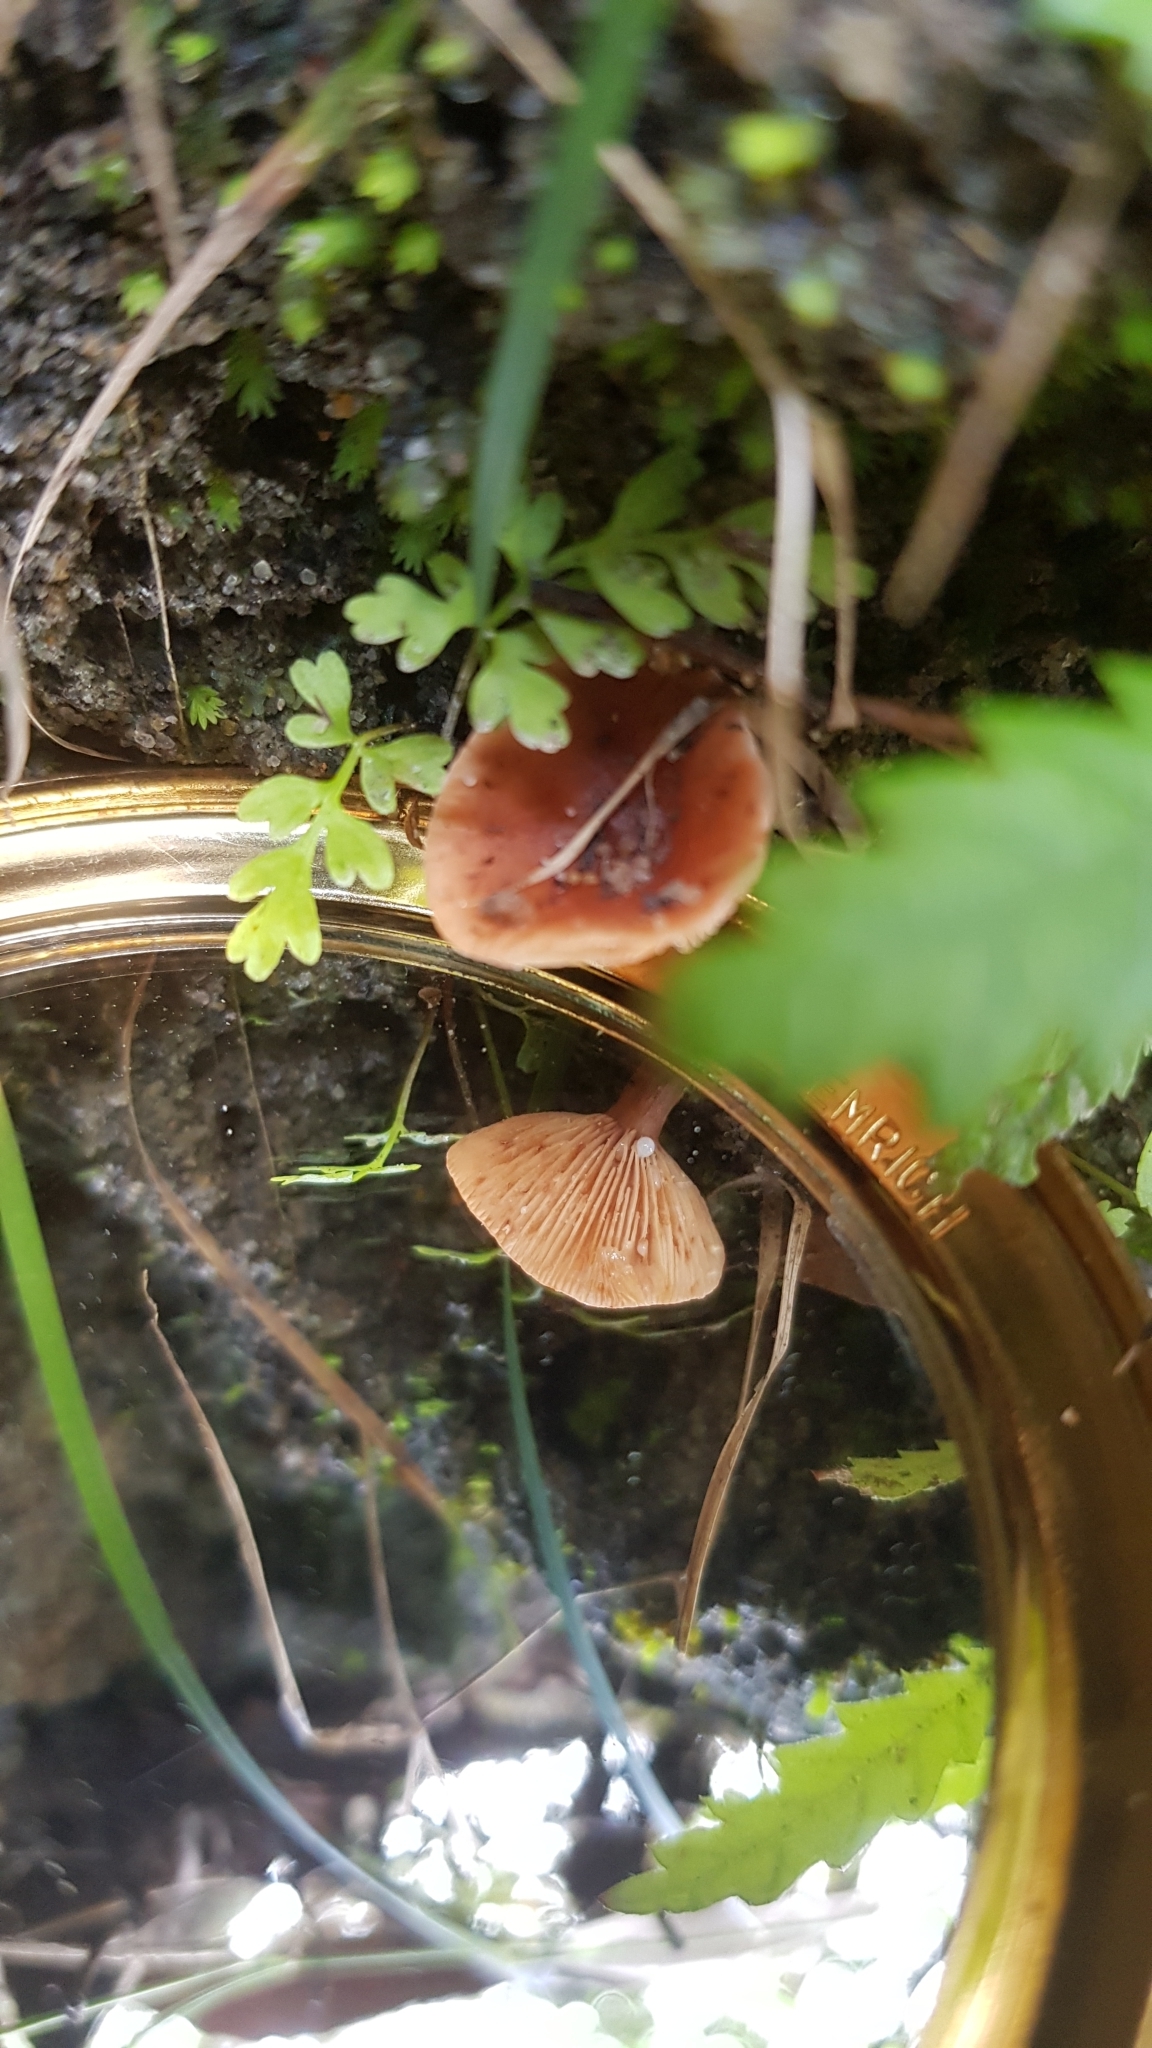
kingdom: Fungi
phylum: Basidiomycota
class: Agaricomycetes
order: Russulales
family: Russulaceae
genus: Lactarius
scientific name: Lactarius eucalypti
